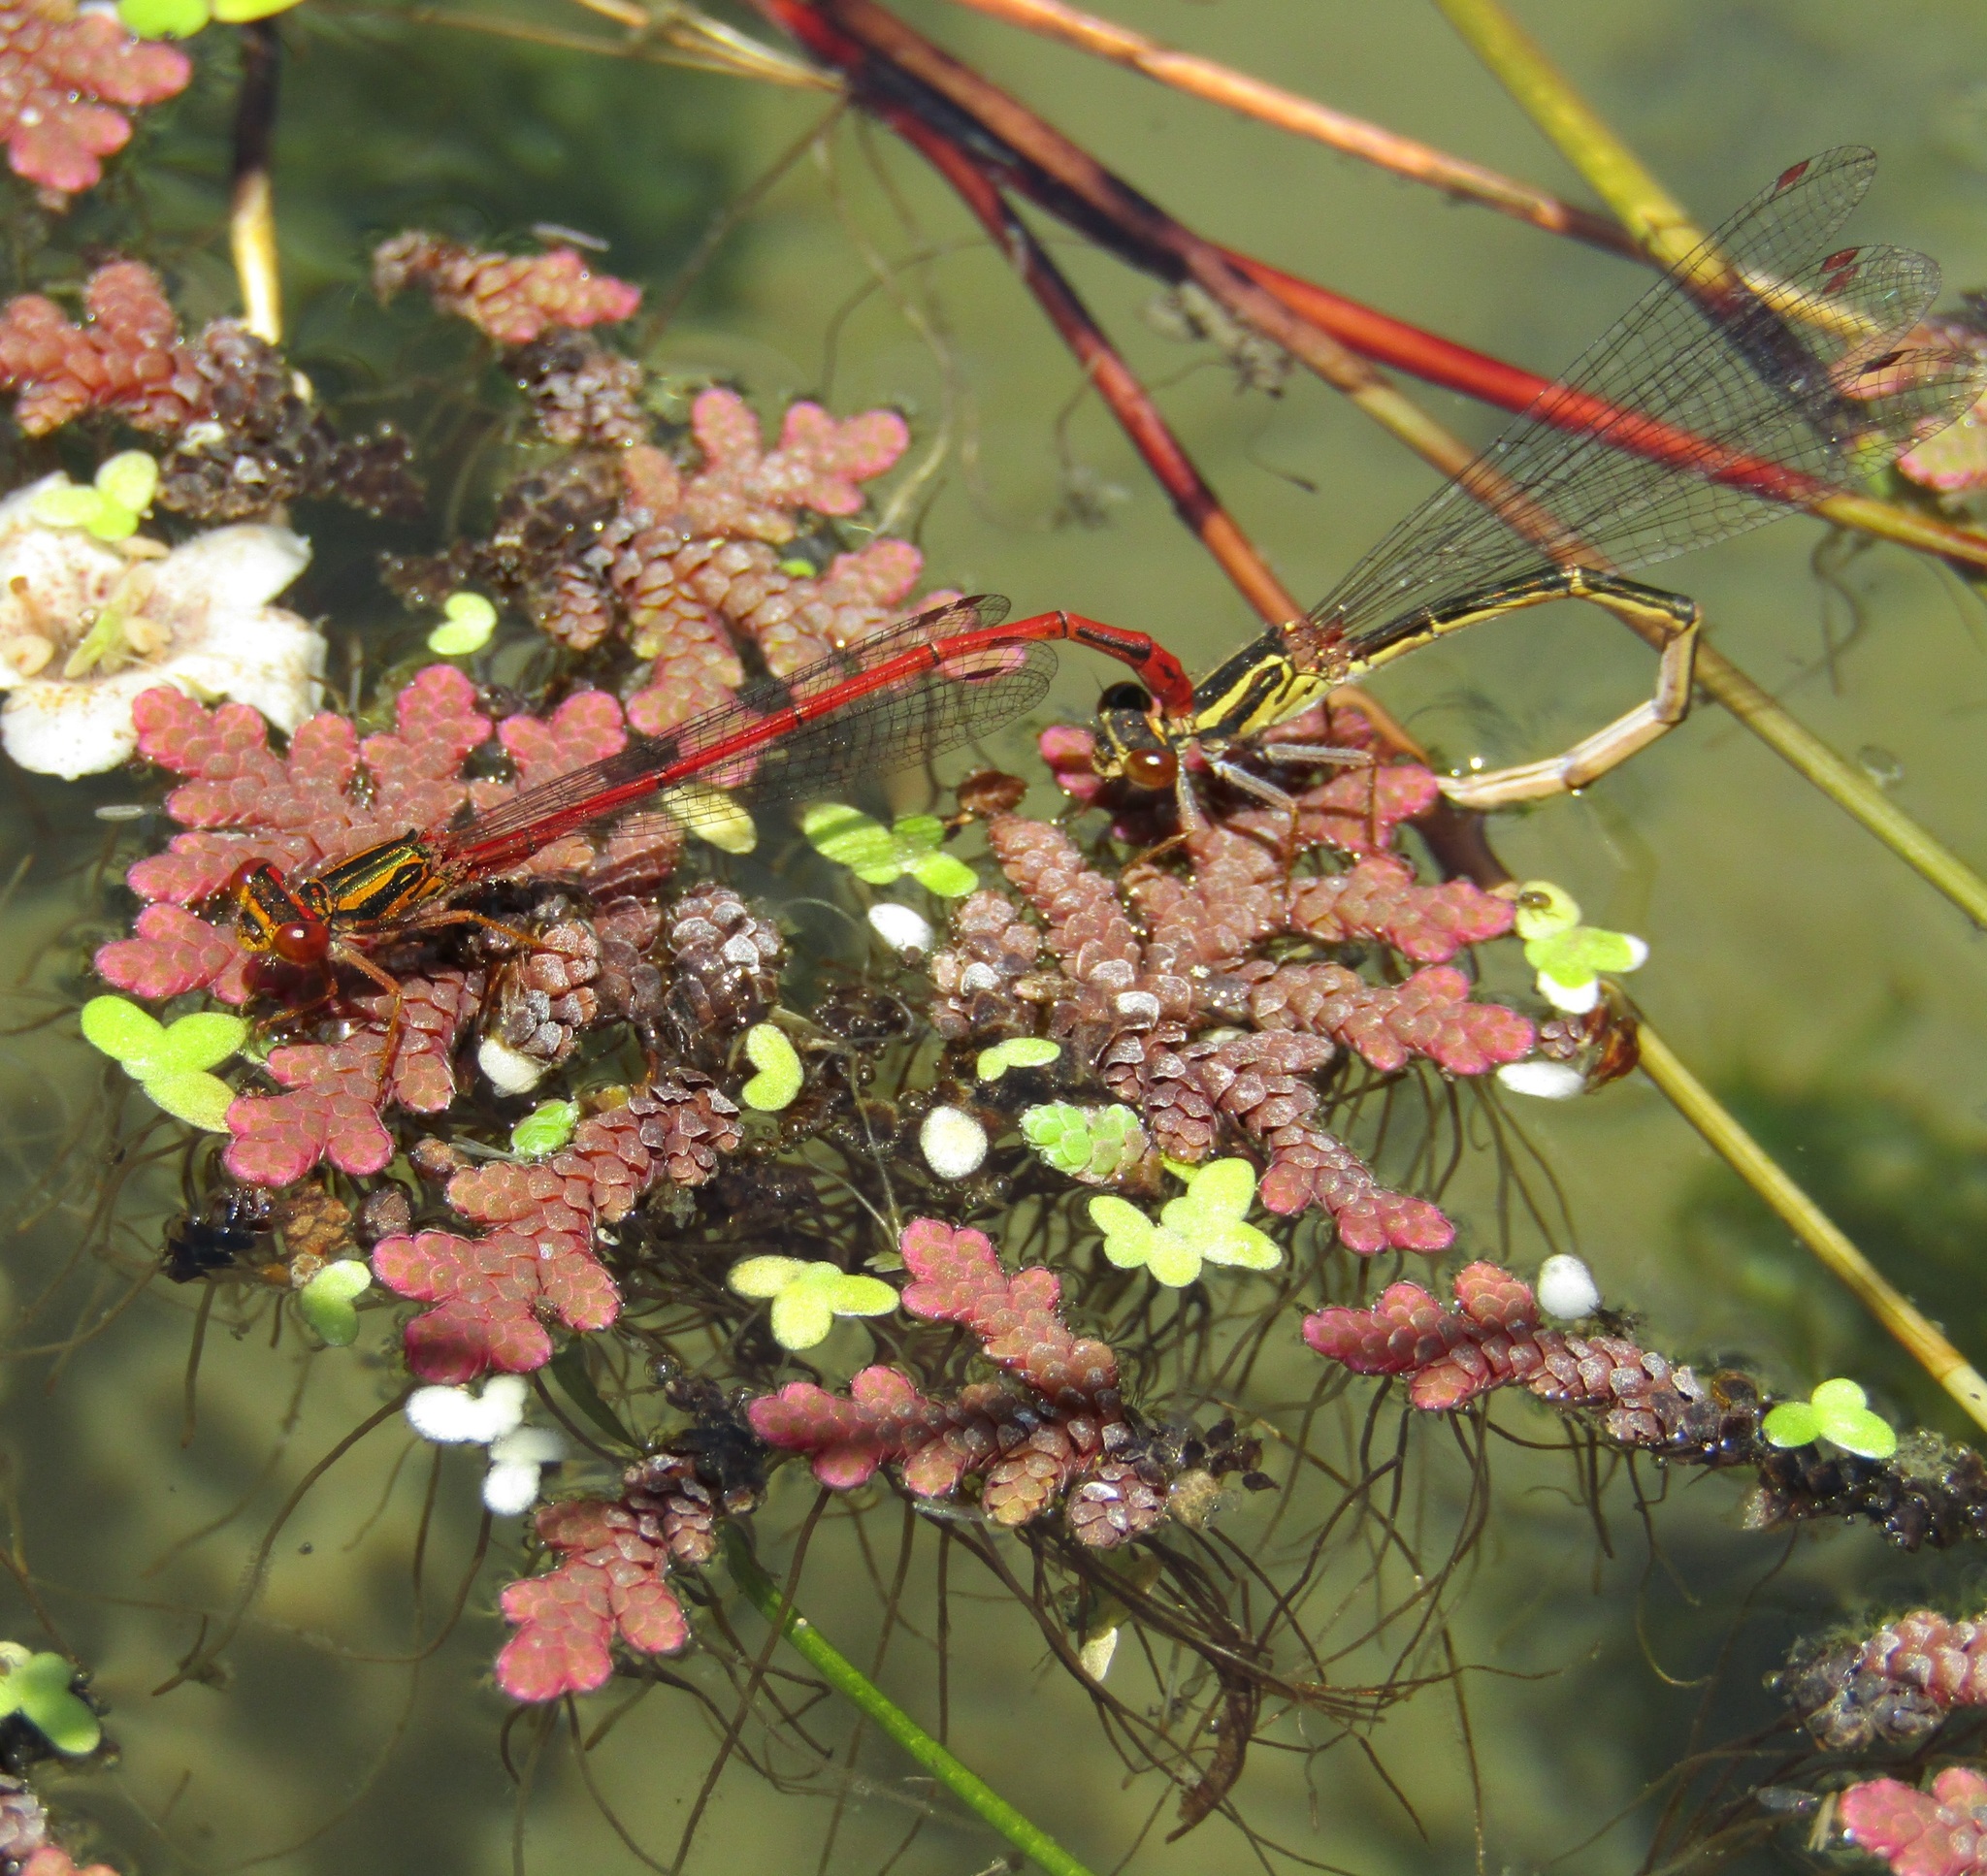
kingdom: Animalia
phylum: Arthropoda
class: Insecta
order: Odonata
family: Coenagrionidae
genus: Xanthocnemis
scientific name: Xanthocnemis zealandica
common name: Common redcoat damselfly
